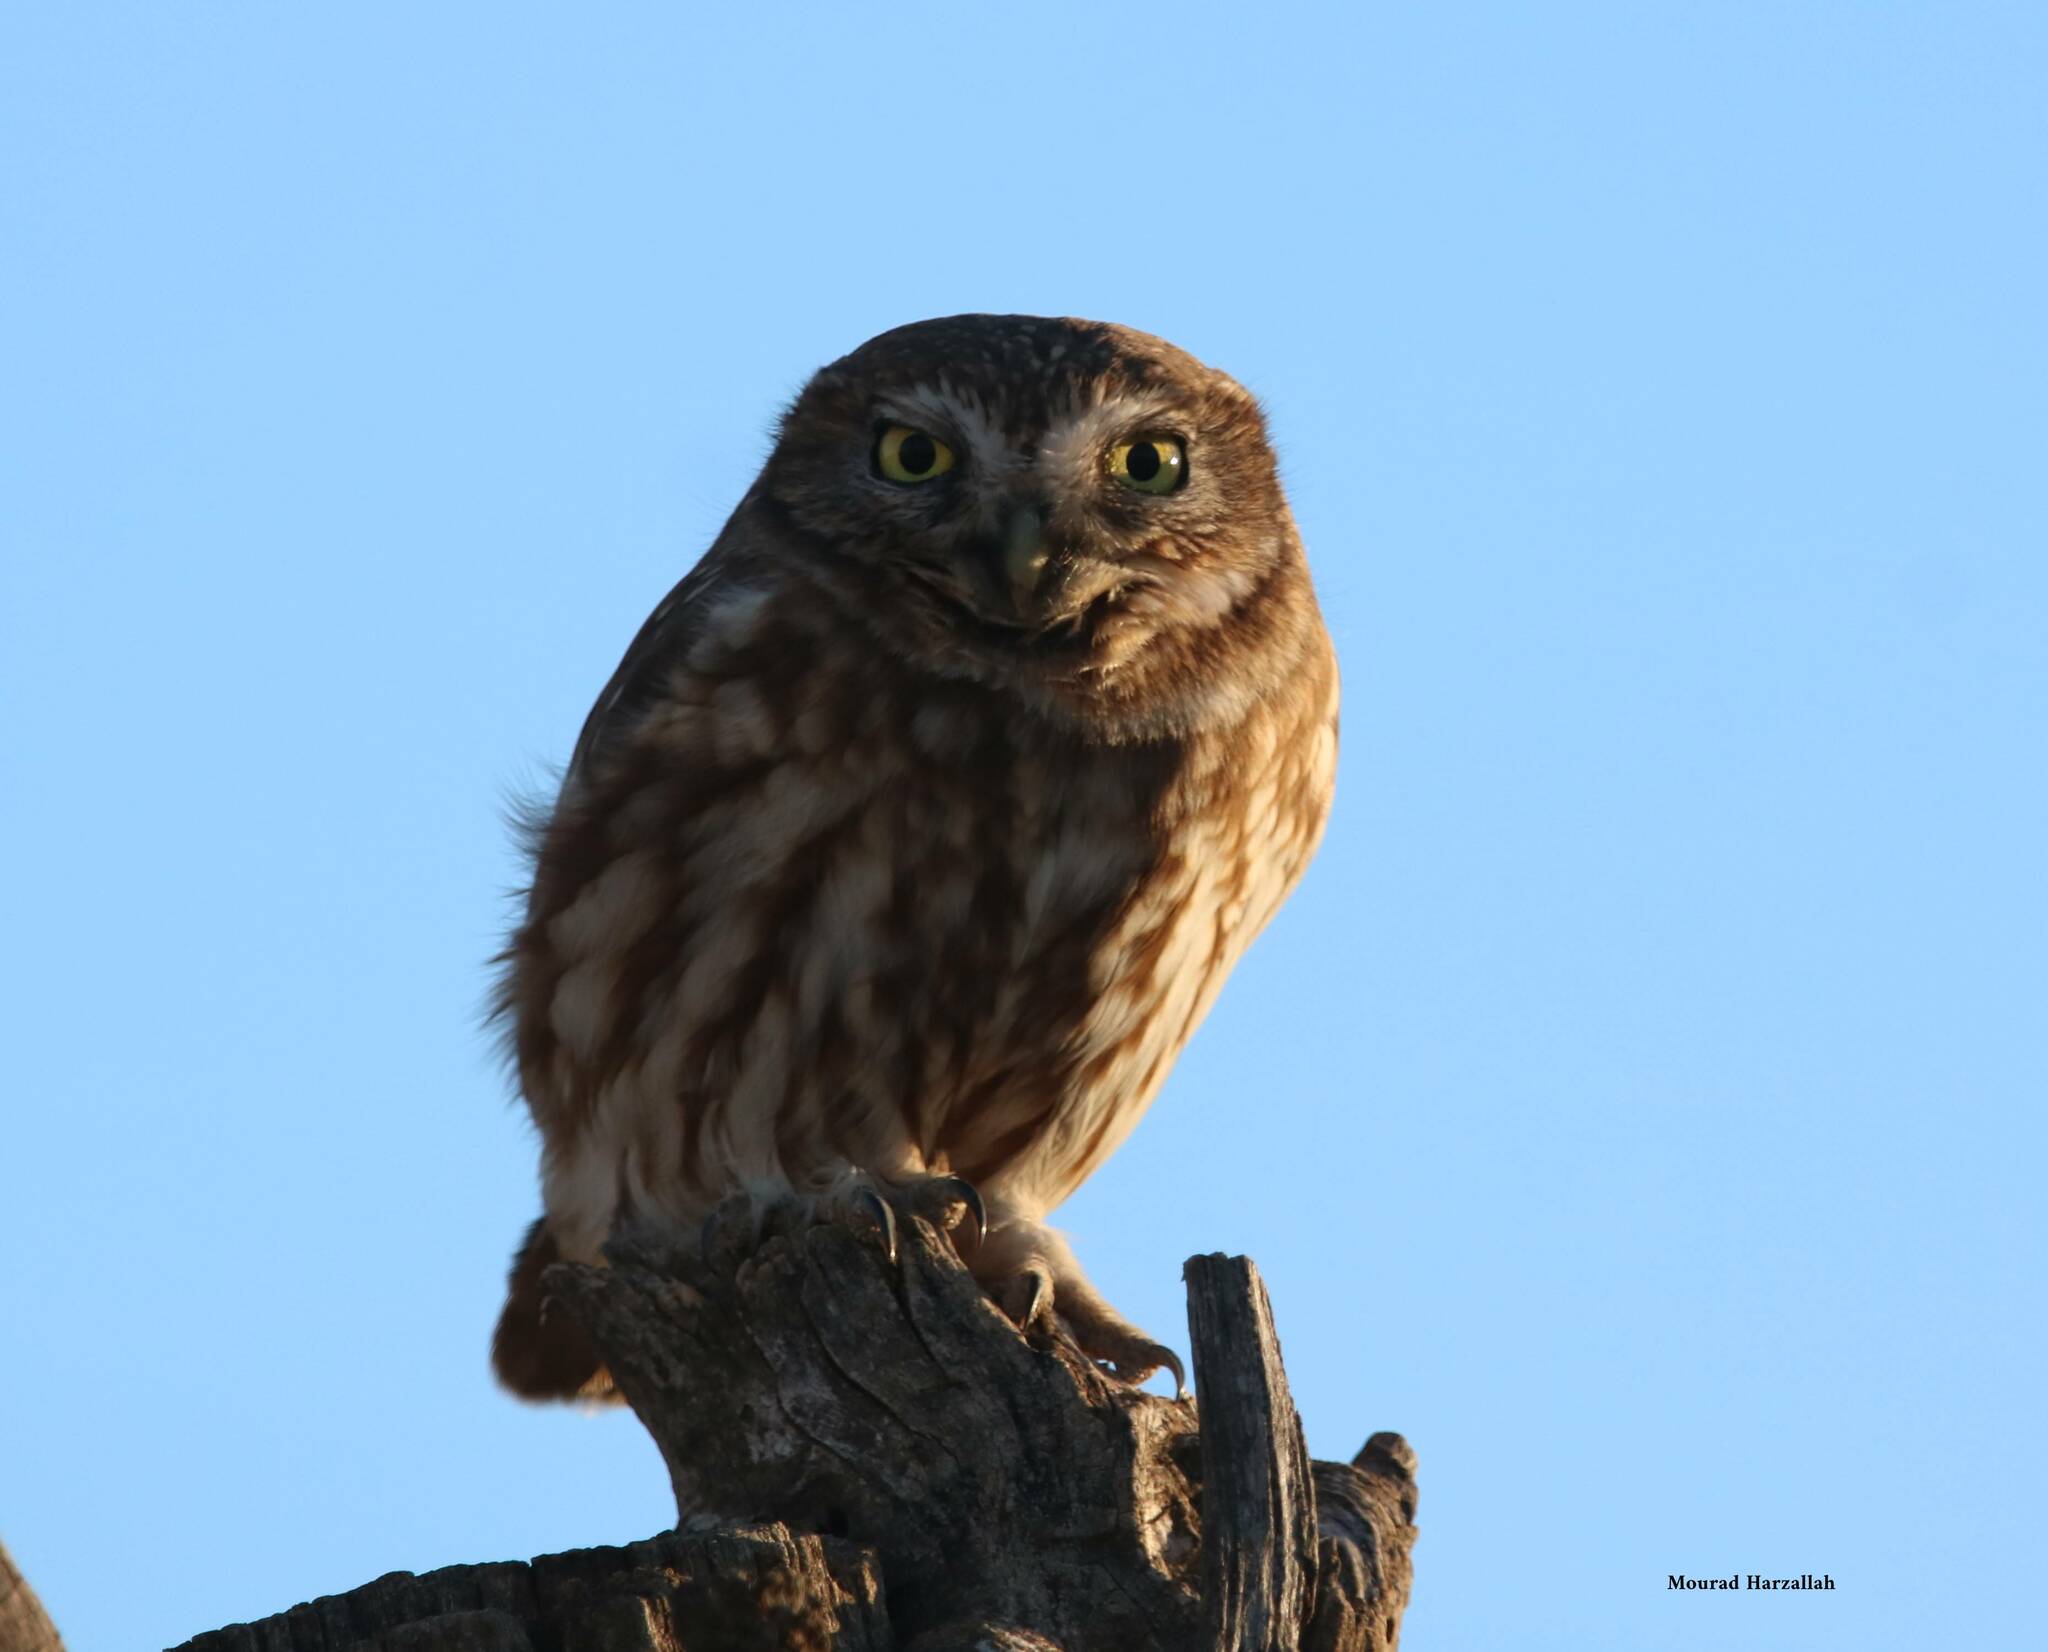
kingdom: Animalia
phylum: Chordata
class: Aves
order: Strigiformes
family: Strigidae
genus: Athene
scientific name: Athene noctua
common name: Little owl
